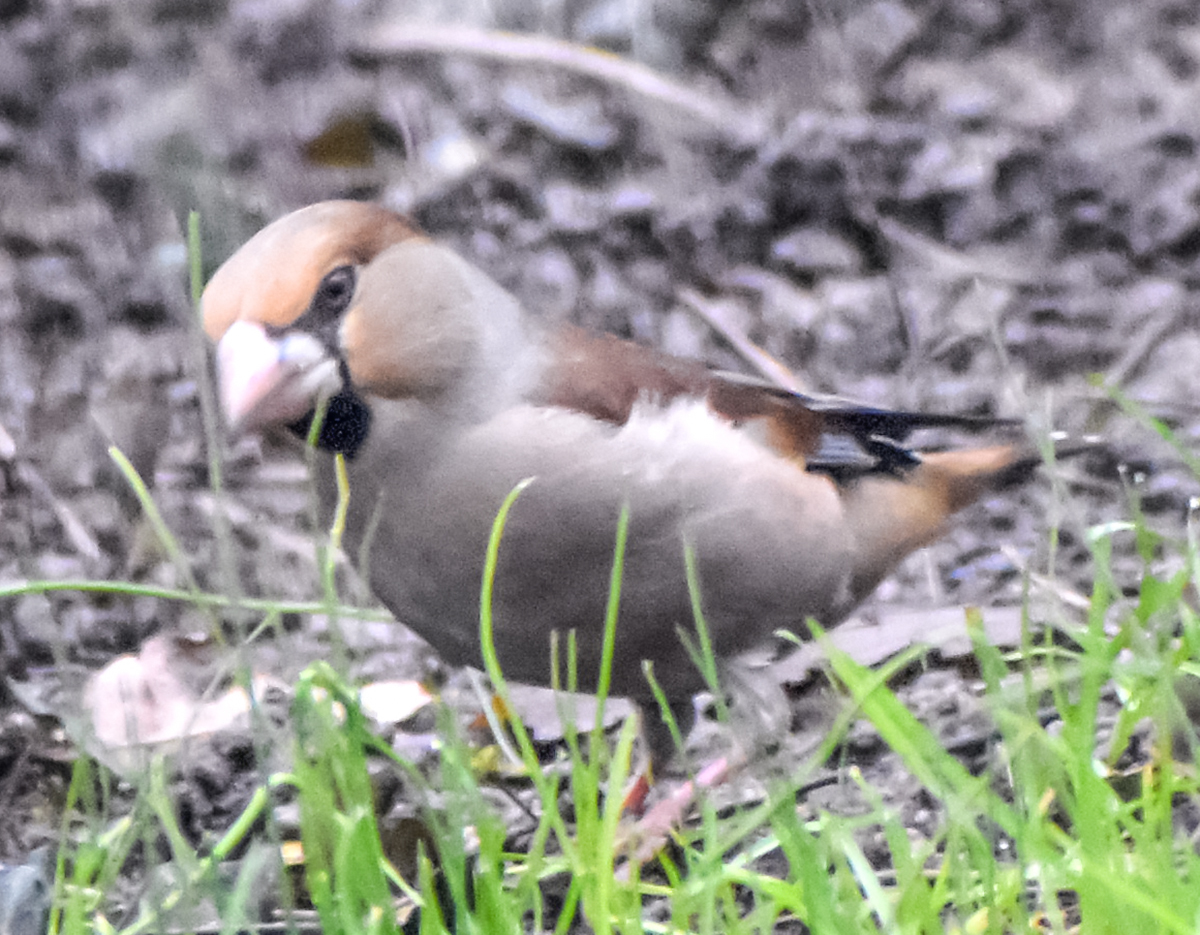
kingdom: Animalia
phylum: Chordata
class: Aves
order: Passeriformes
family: Fringillidae
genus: Coccothraustes
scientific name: Coccothraustes coccothraustes
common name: Hawfinch
